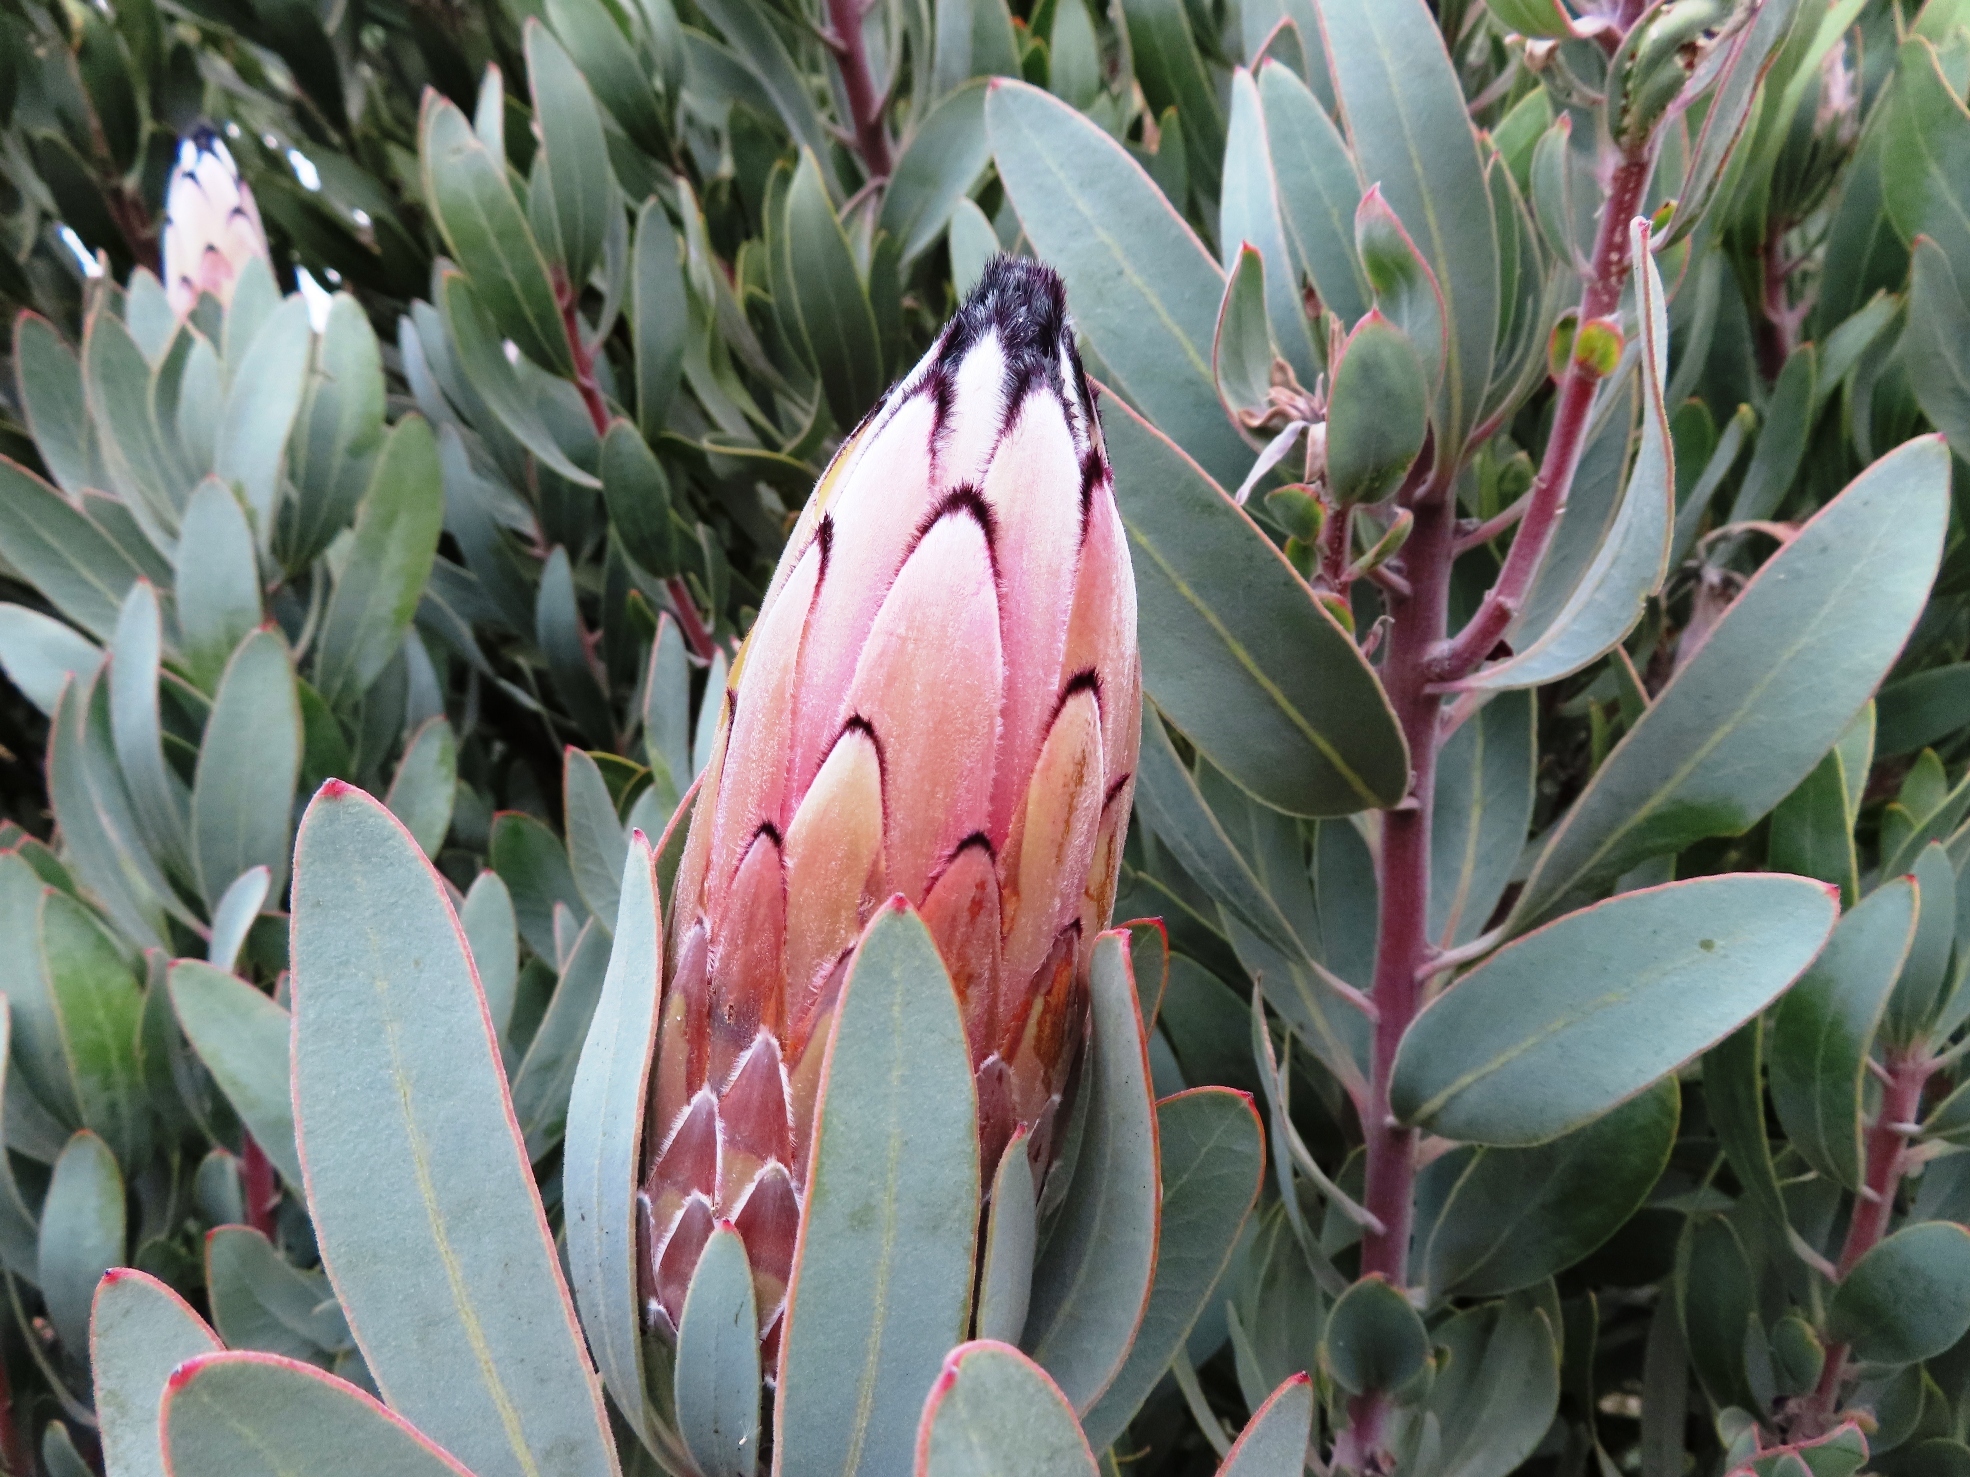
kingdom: Plantae
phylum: Tracheophyta
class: Magnoliopsida
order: Proteales
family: Proteaceae
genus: Protea
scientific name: Protea laurifolia
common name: Grey-leaf sugarbsh
